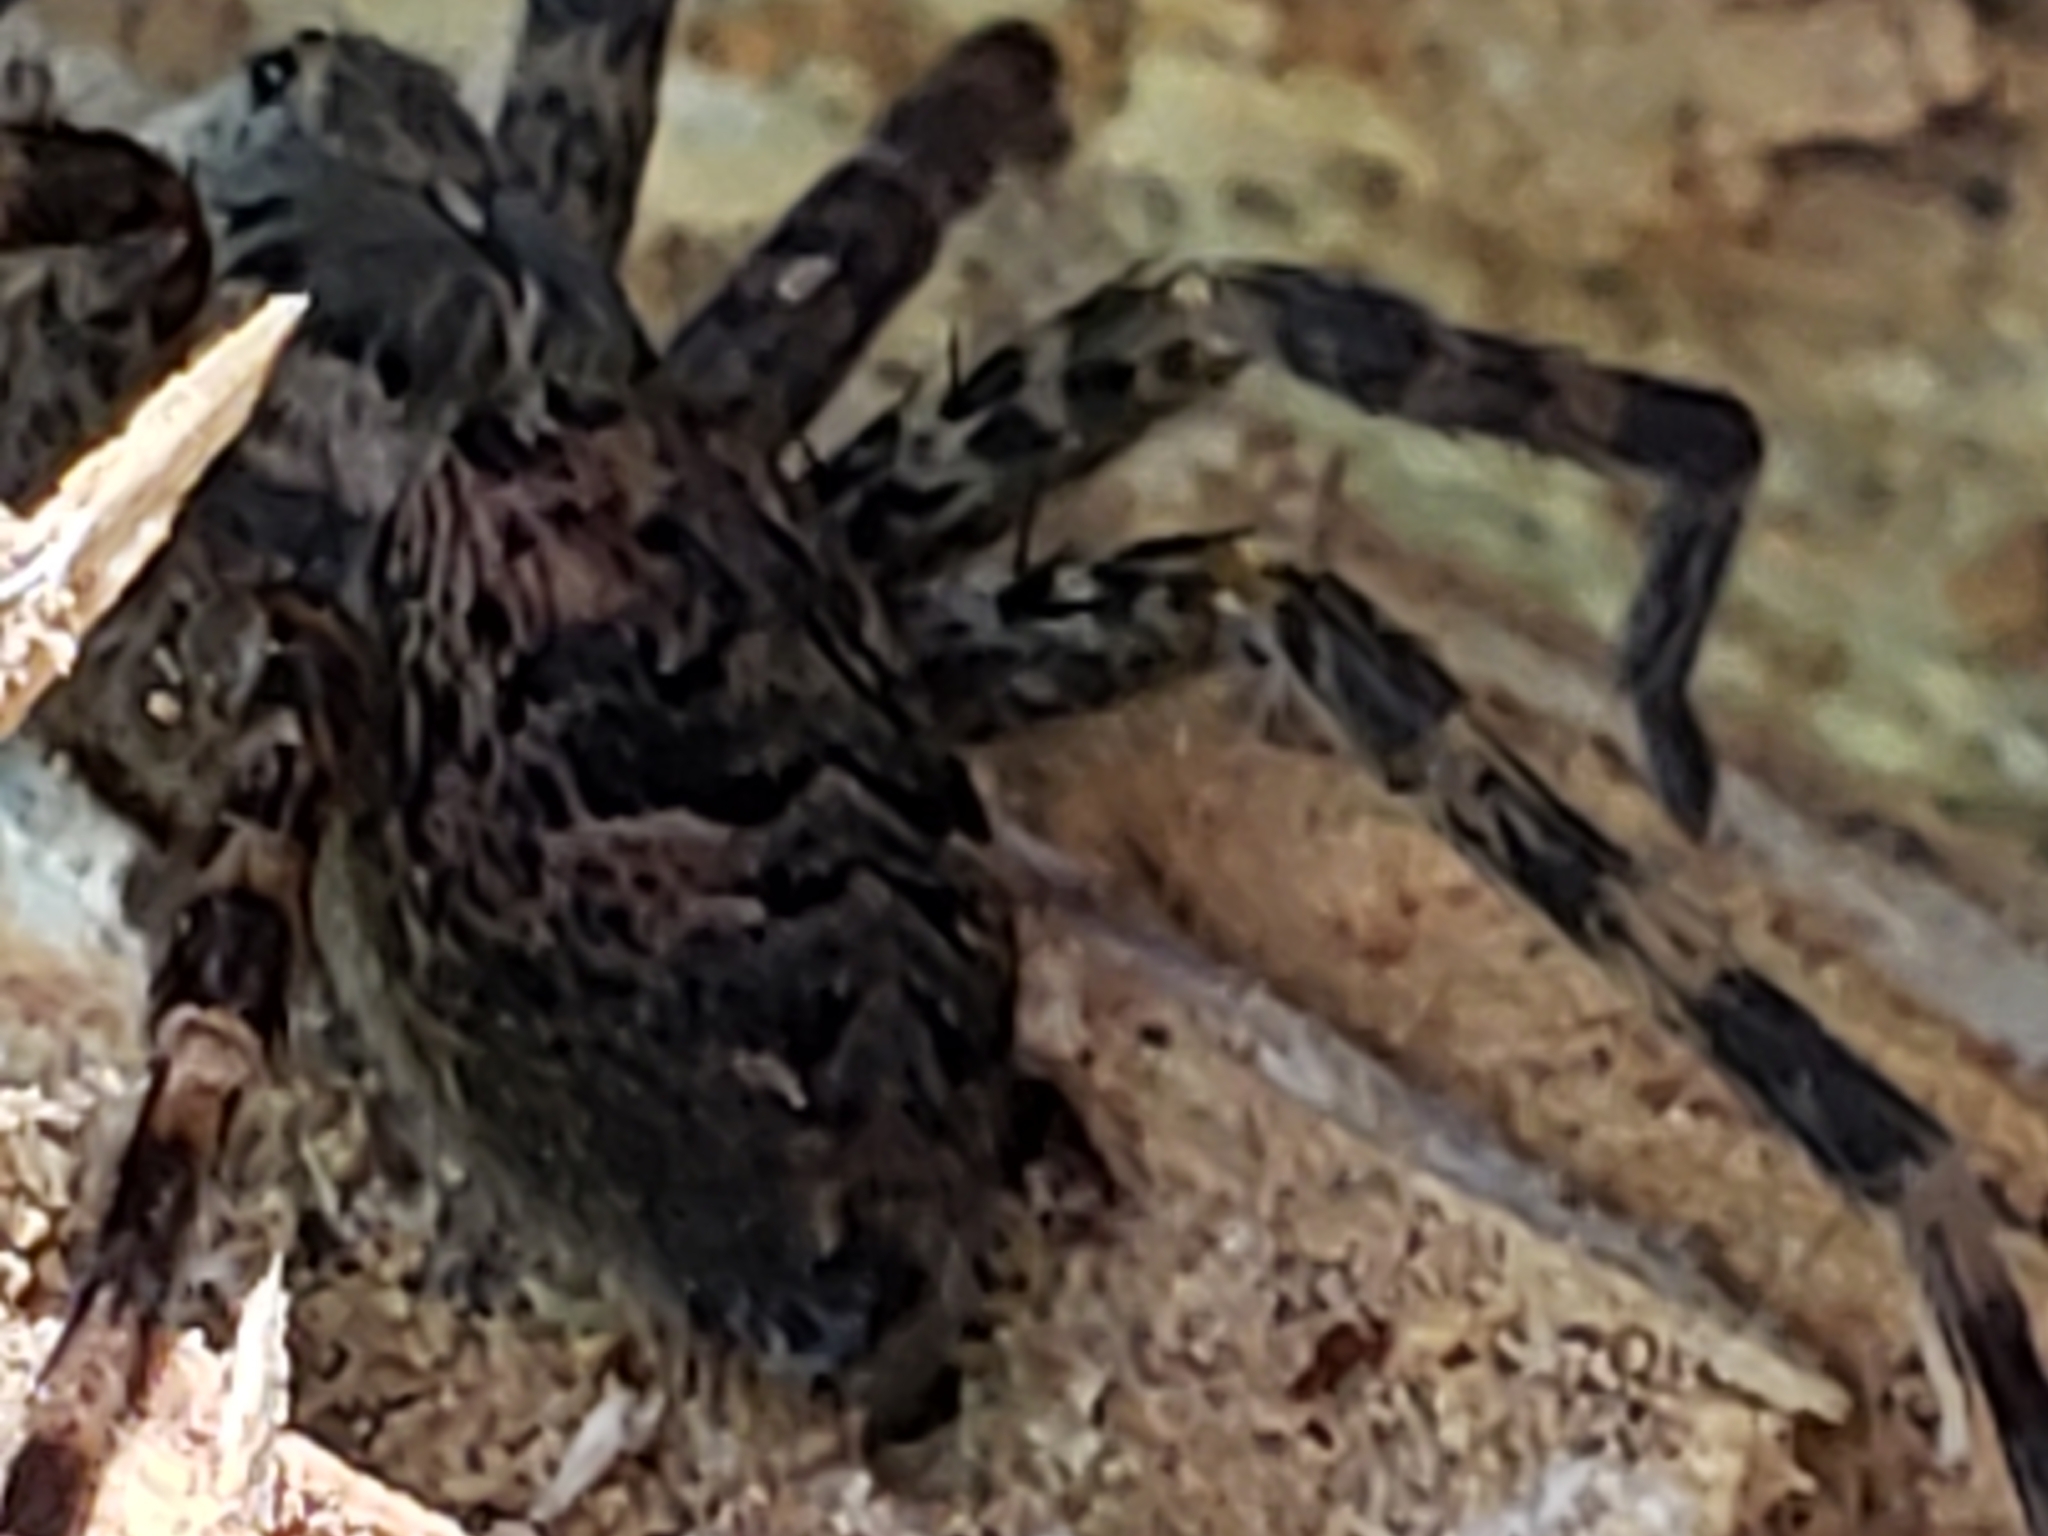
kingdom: Animalia
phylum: Arthropoda
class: Arachnida
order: Araneae
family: Pisauridae
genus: Dolomedes
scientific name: Dolomedes tenebrosus
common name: Dark fishing spider
